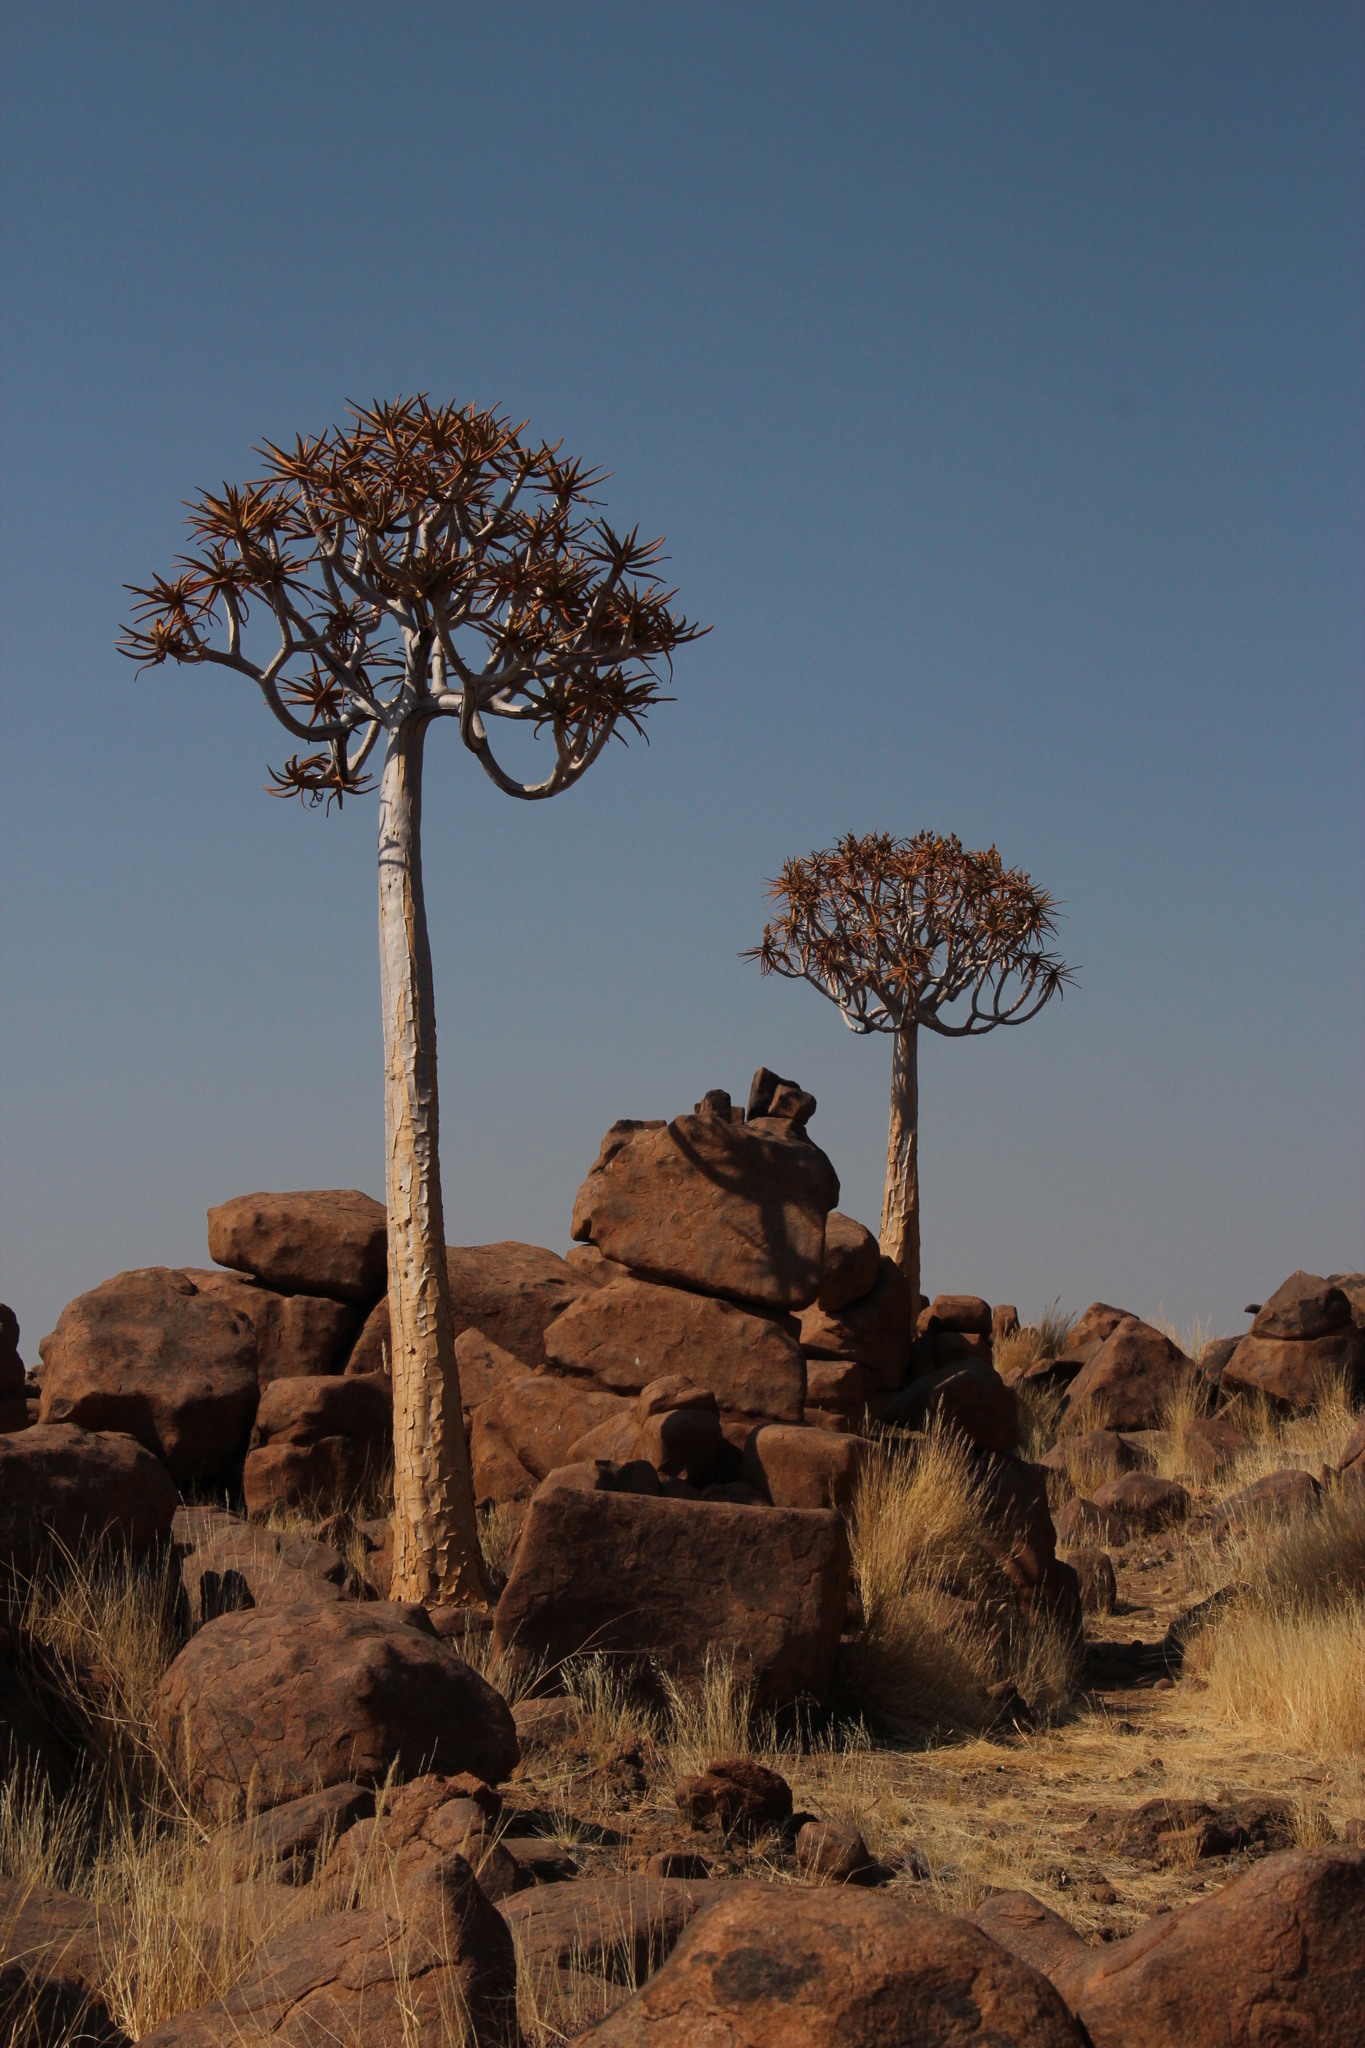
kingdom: Plantae
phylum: Tracheophyta
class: Liliopsida
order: Asparagales
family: Asphodelaceae
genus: Aloidendron
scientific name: Aloidendron dichotomum
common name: Quiver tree
